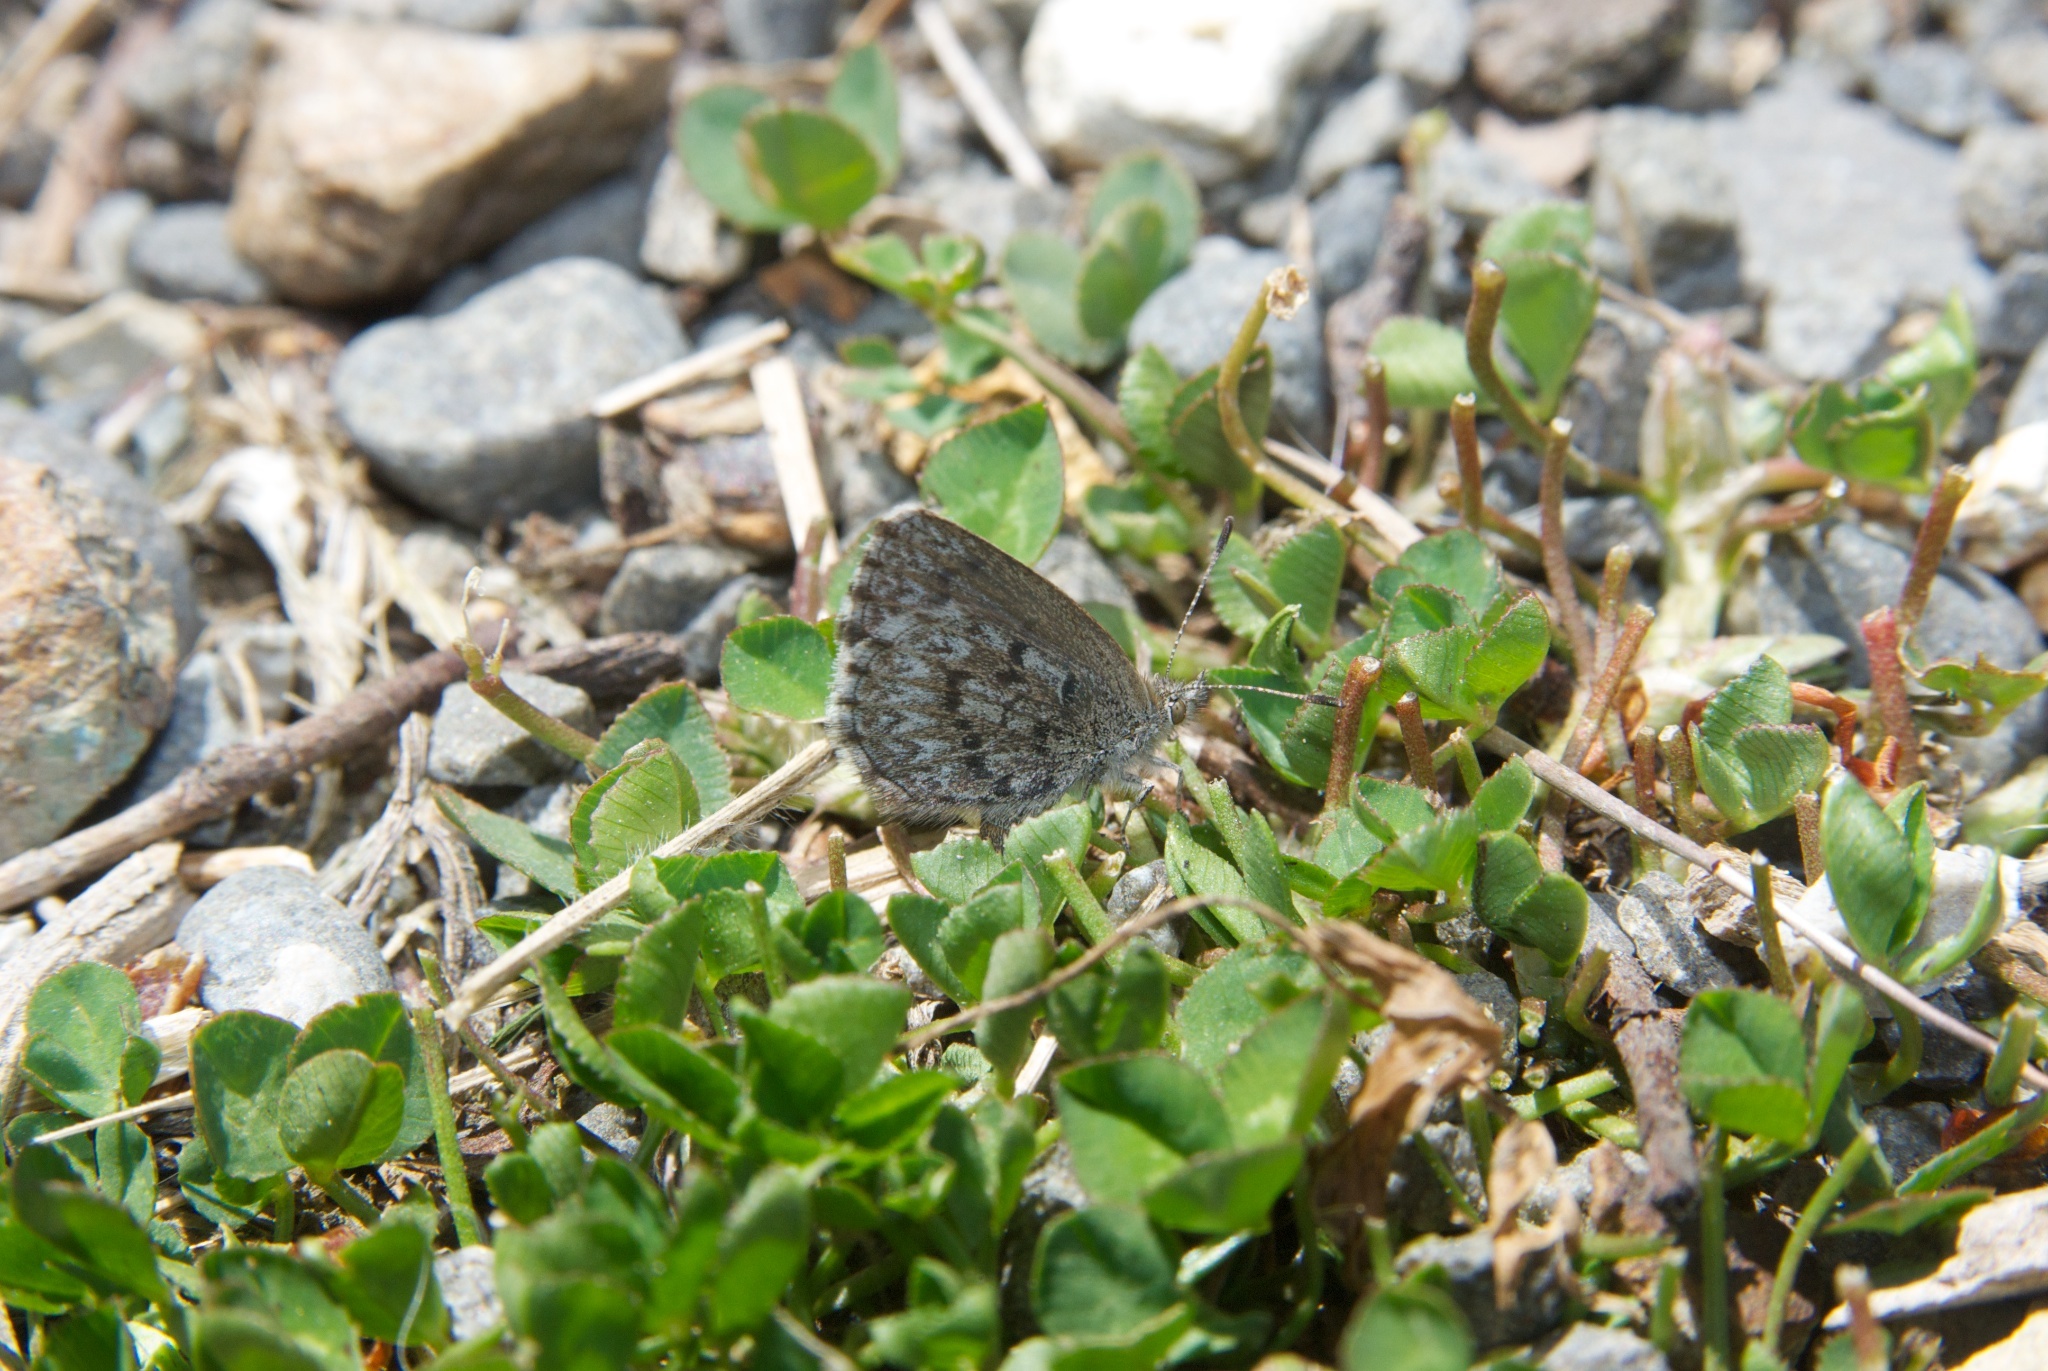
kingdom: Animalia
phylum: Arthropoda
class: Insecta
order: Lepidoptera
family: Lycaenidae
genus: Zizina
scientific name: Zizina oxleyi
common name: Southern blue
